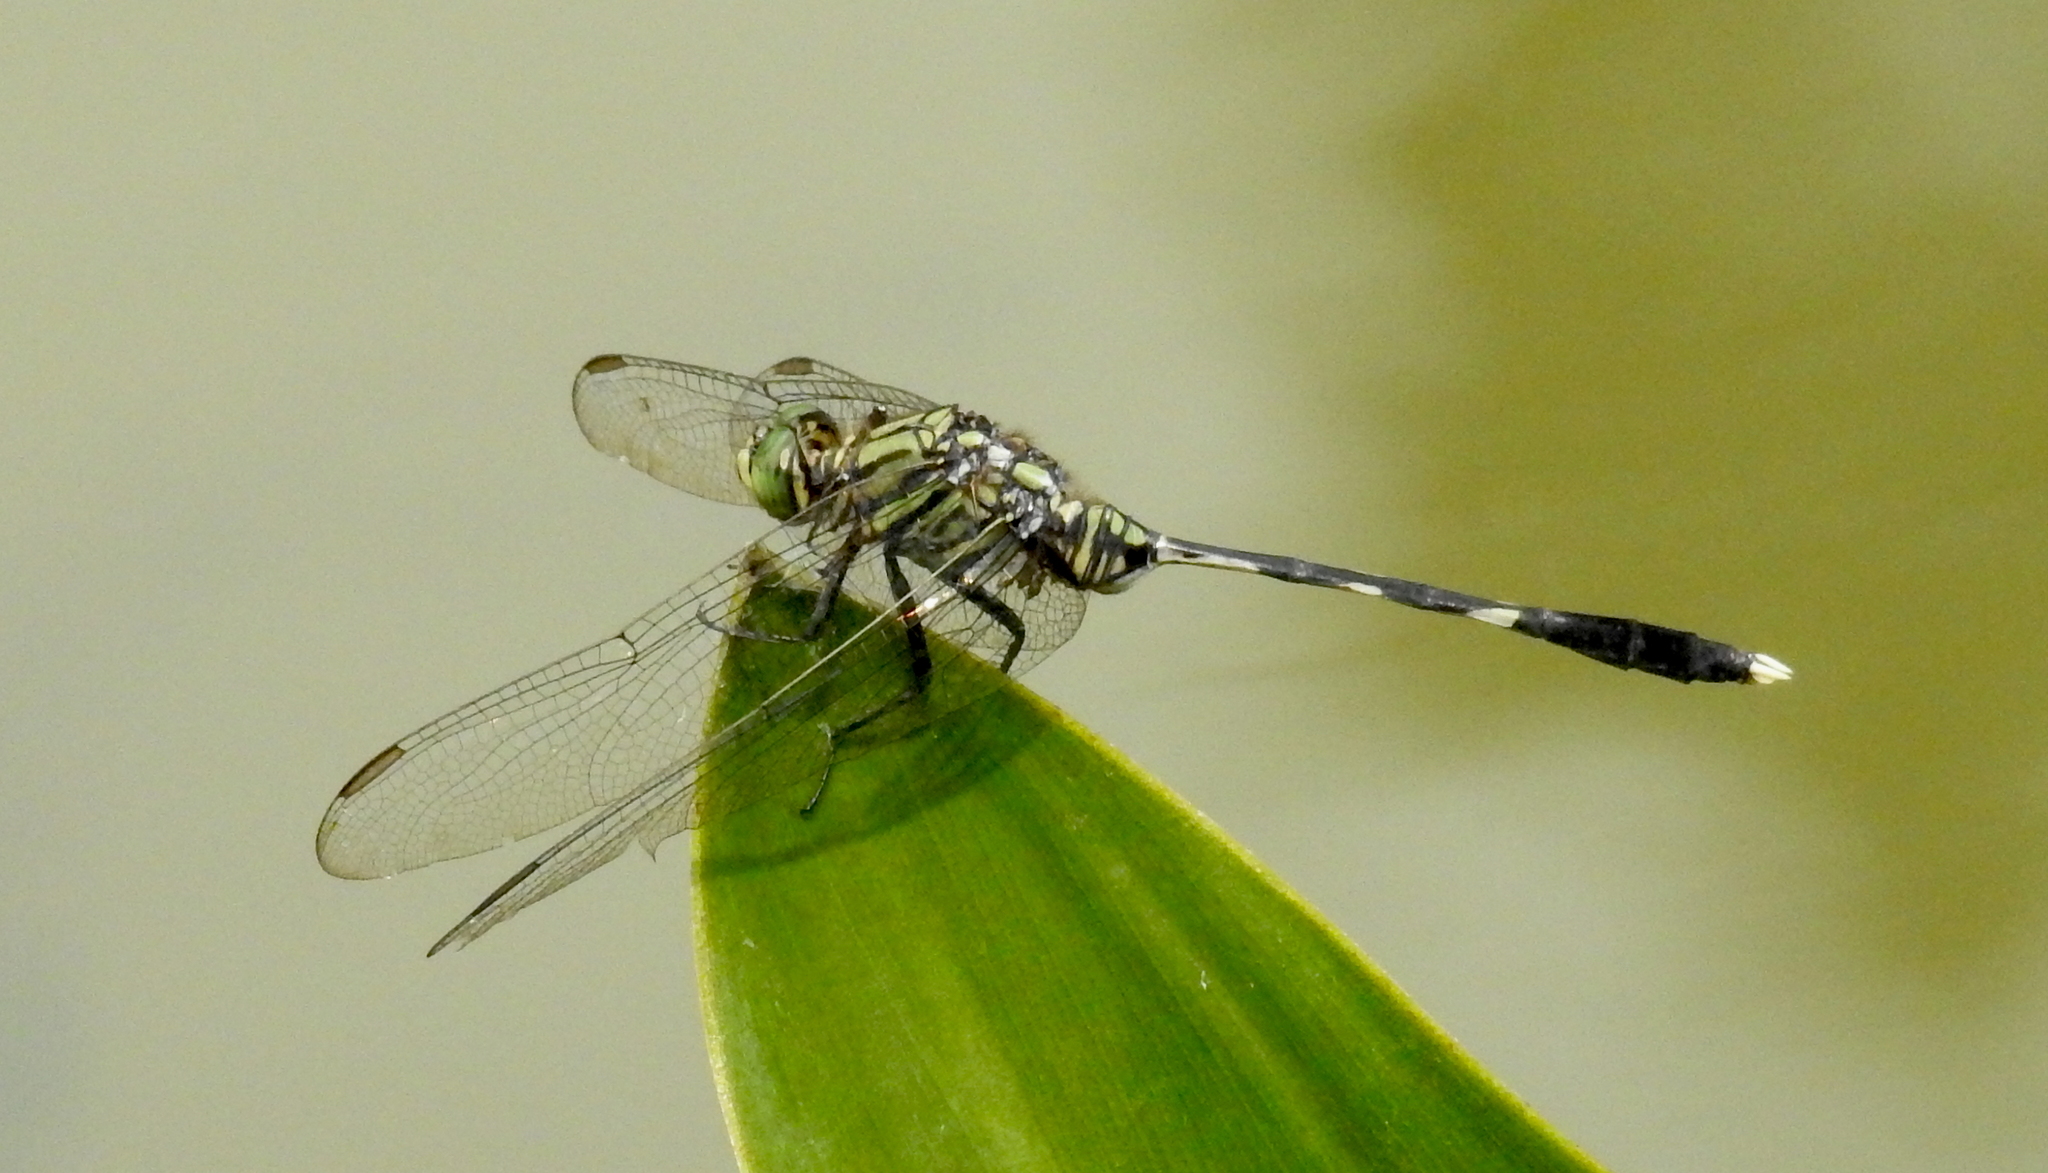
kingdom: Animalia
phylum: Arthropoda
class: Insecta
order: Odonata
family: Libellulidae
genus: Orthetrum
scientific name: Orthetrum sabina
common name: Slender skimmer
